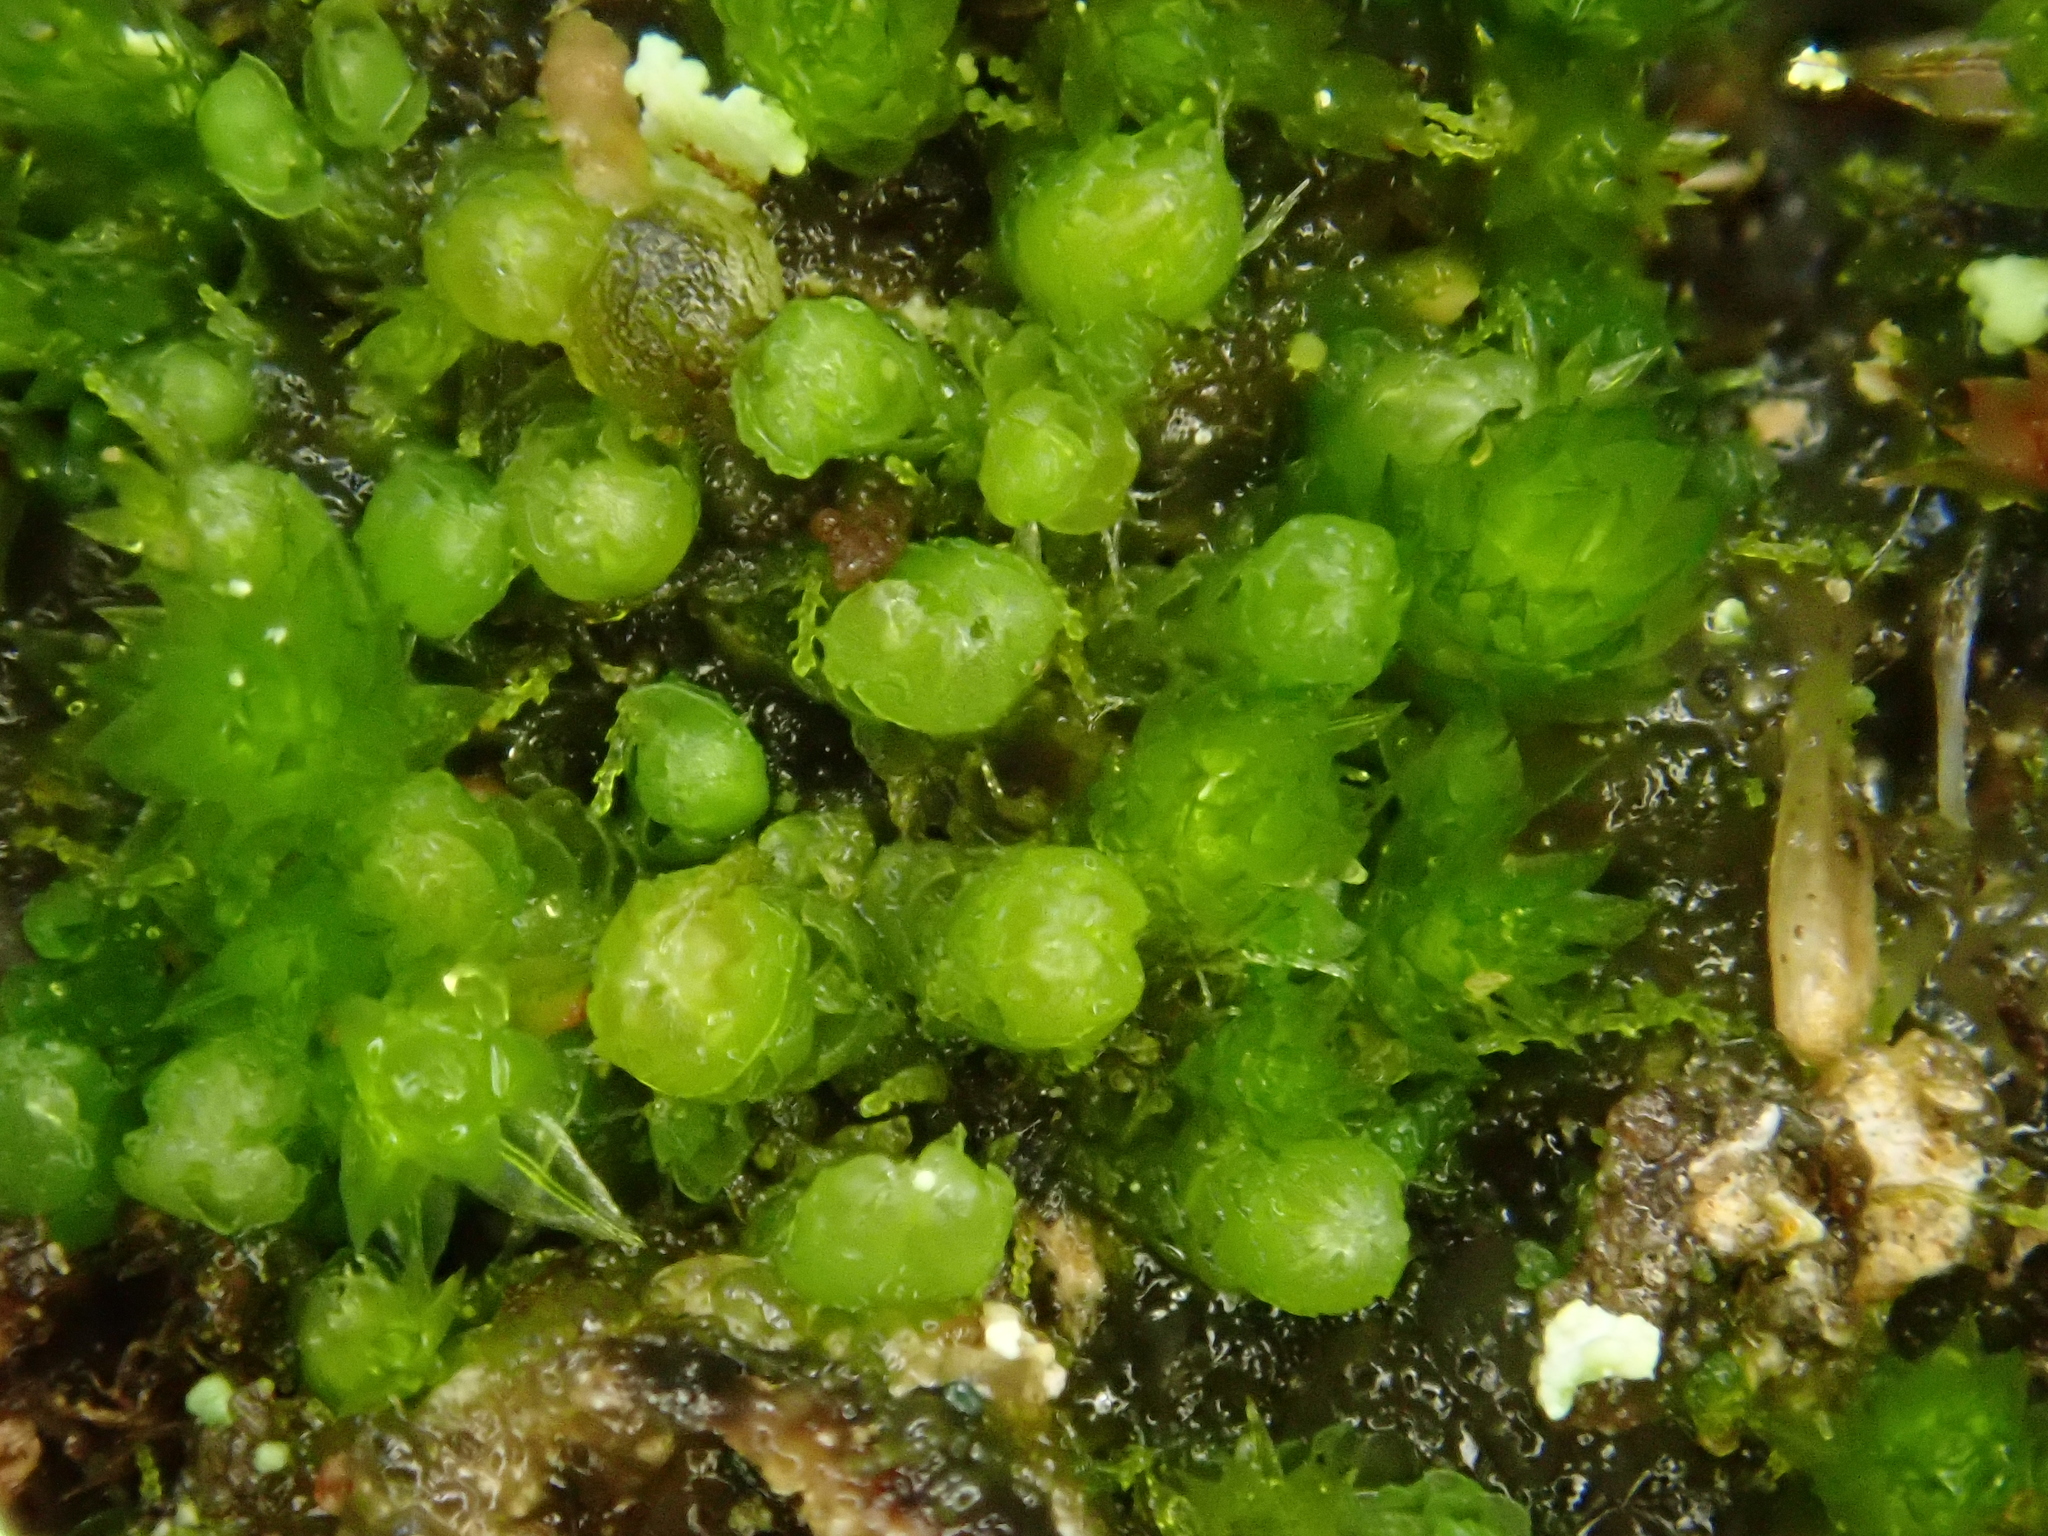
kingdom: Plantae
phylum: Marchantiophyta
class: Jungermanniopsida
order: Jungermanniales
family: Anastrophyllaceae
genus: Isopaches
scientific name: Isopaches bicrenatus
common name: Lesser notchwort
